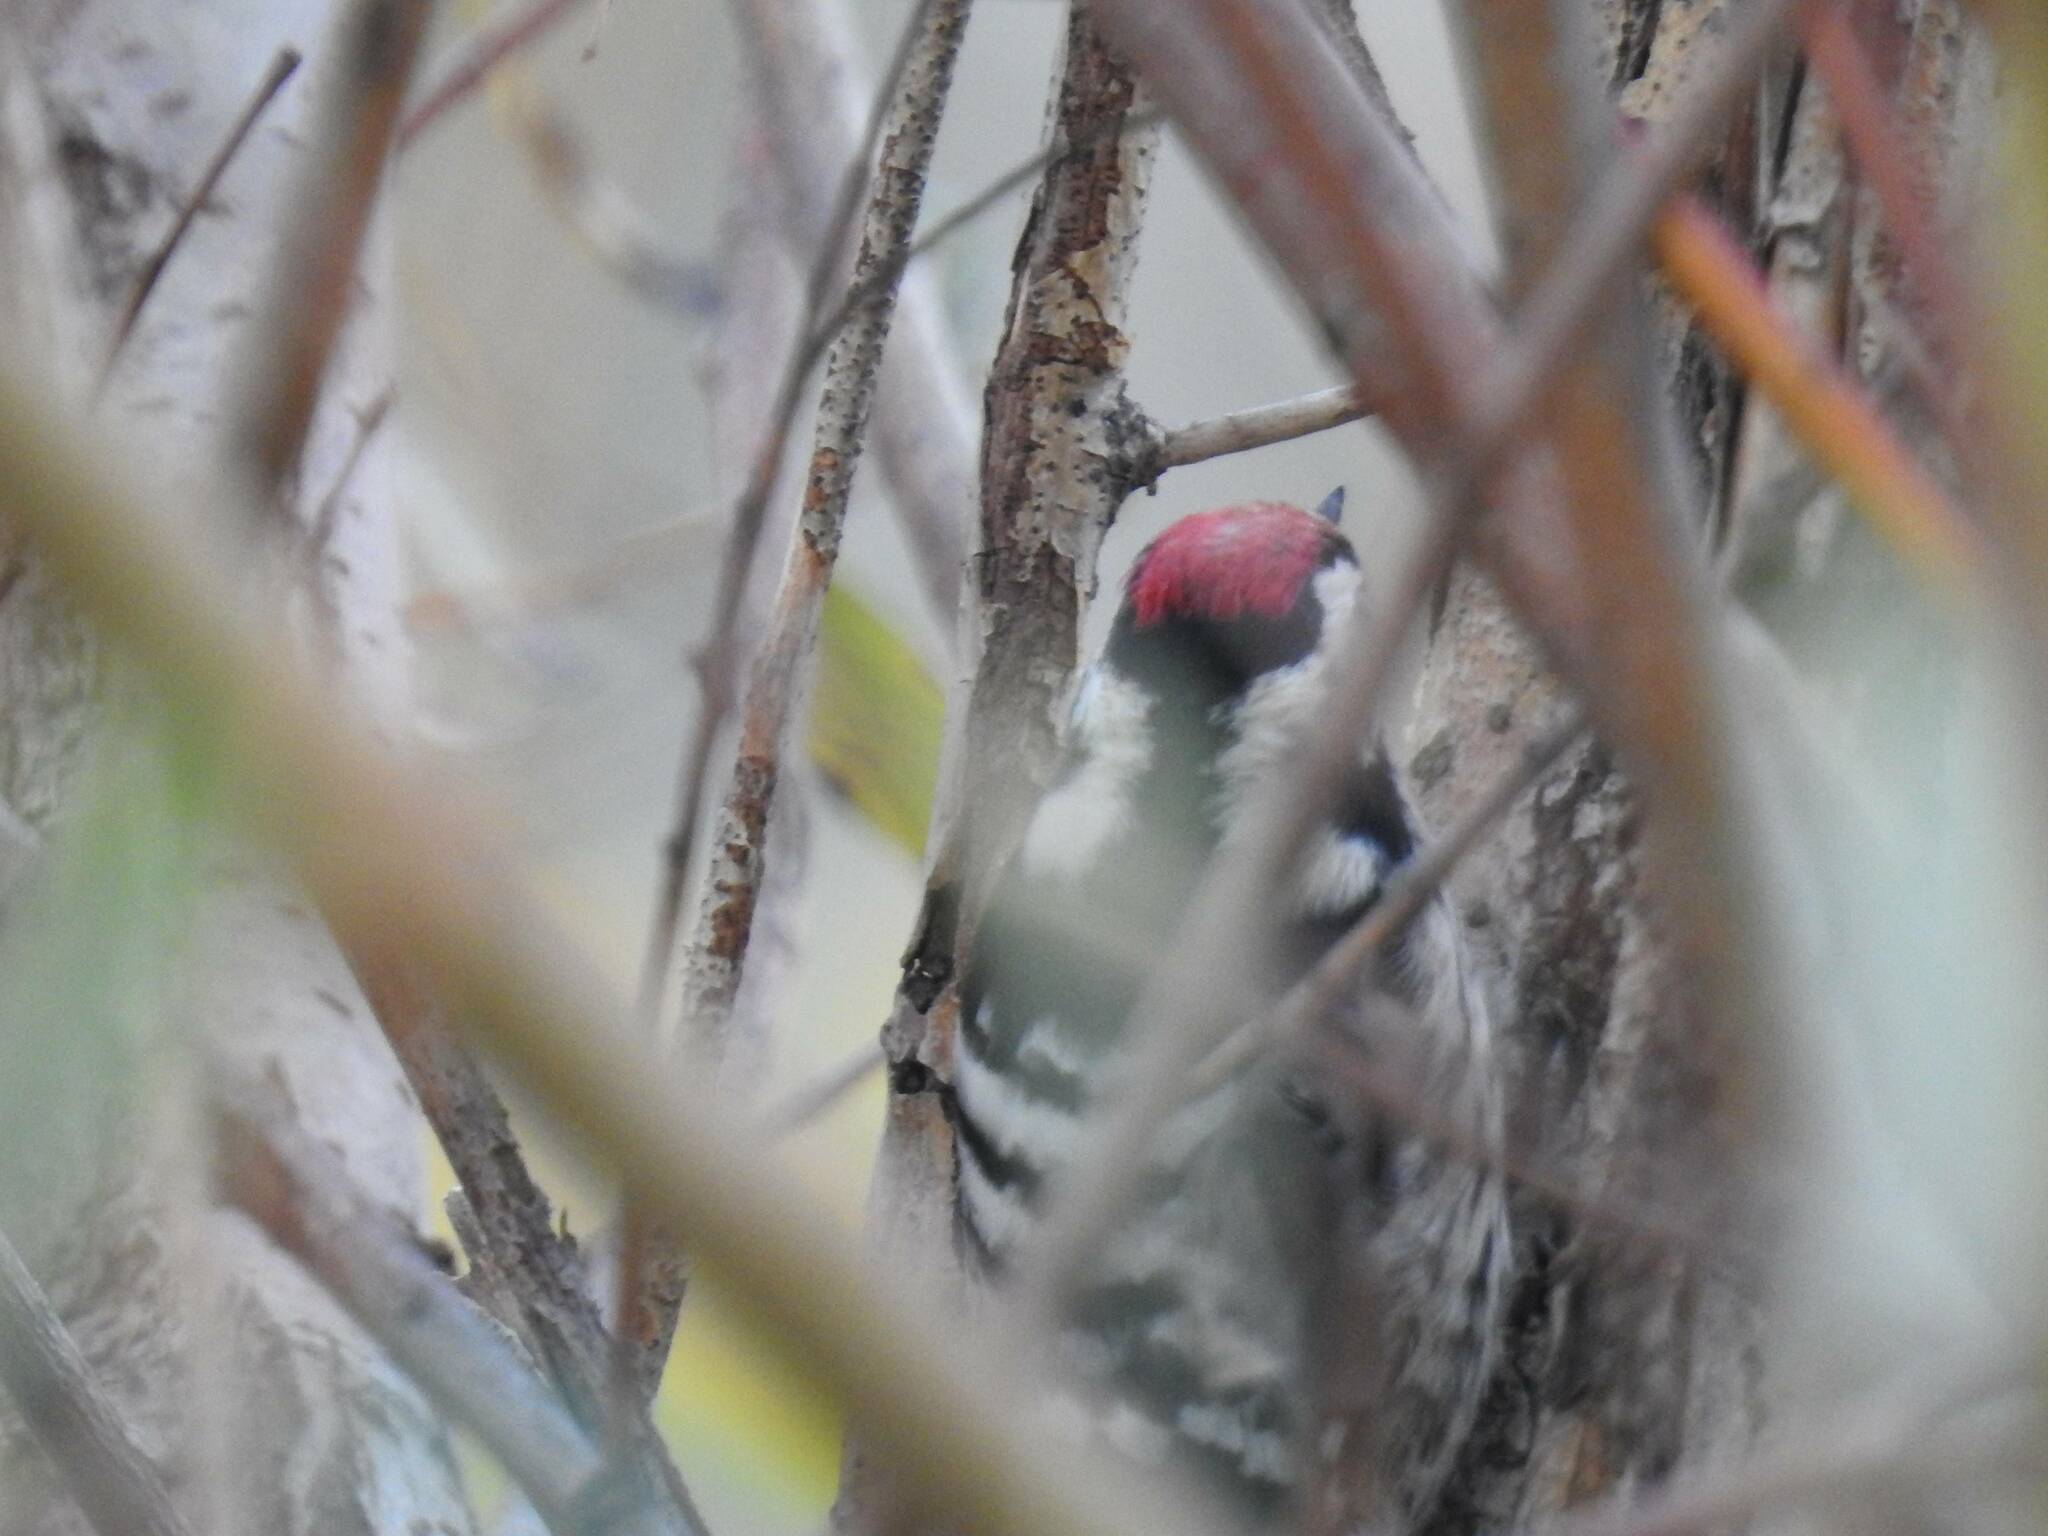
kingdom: Animalia
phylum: Chordata
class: Aves
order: Piciformes
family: Picidae
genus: Dryobates
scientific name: Dryobates minor
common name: Lesser spotted woodpecker
